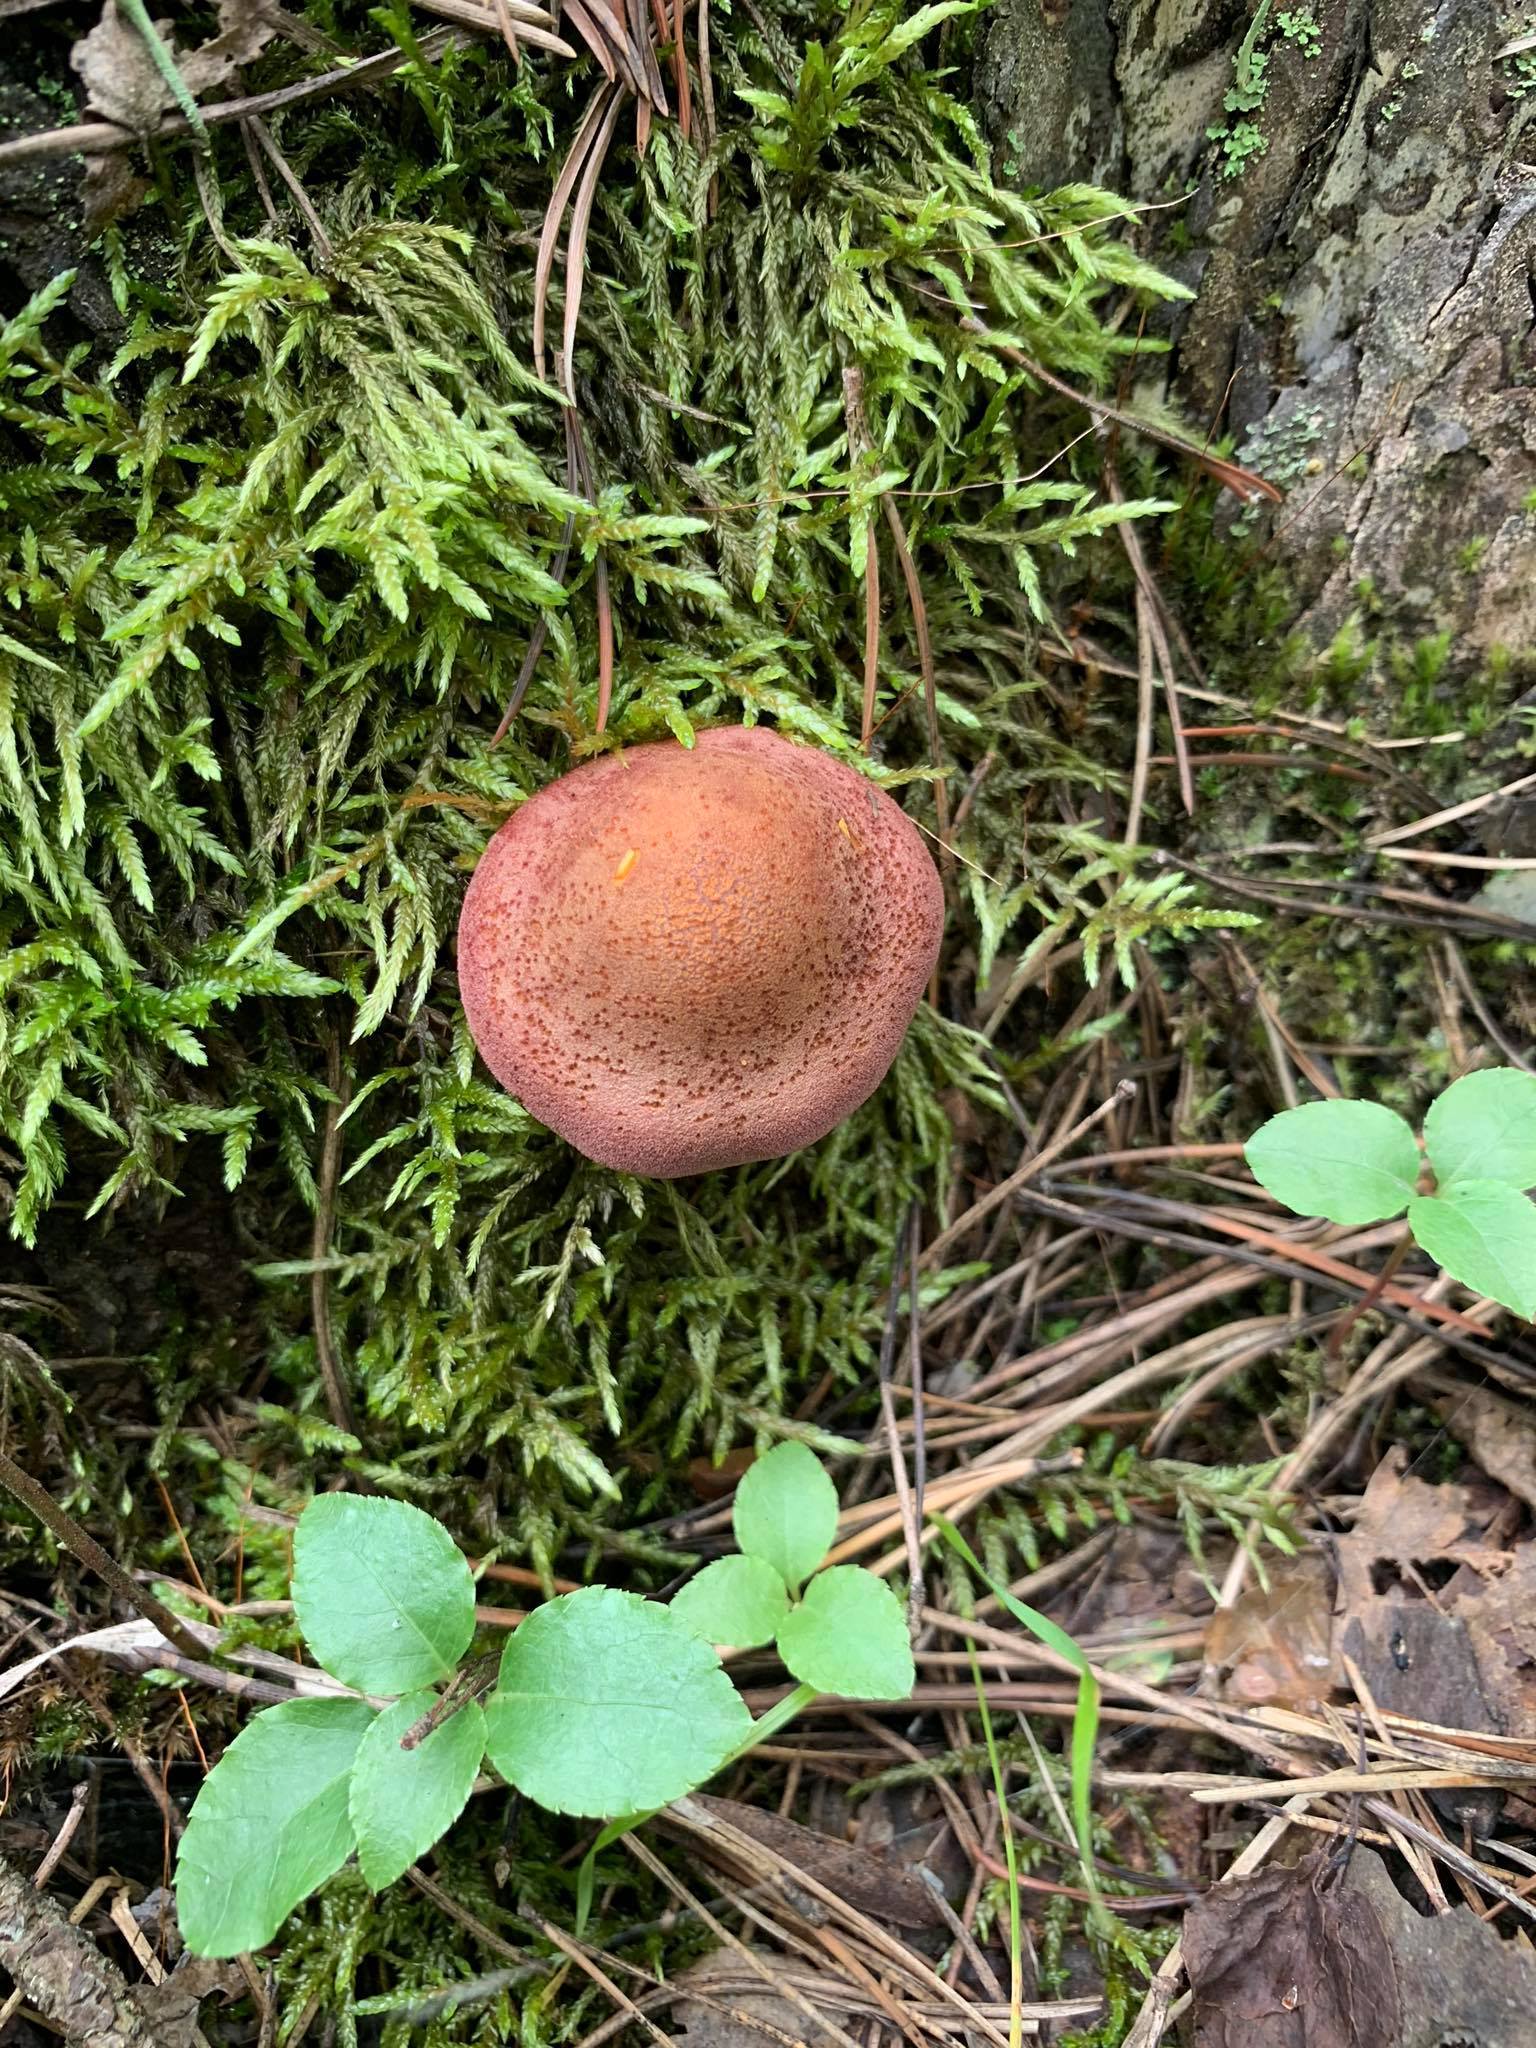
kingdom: Fungi
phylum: Basidiomycota
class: Agaricomycetes
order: Agaricales
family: Tricholomataceae
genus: Tricholomopsis
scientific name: Tricholomopsis rutilans
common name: Plums and custard
